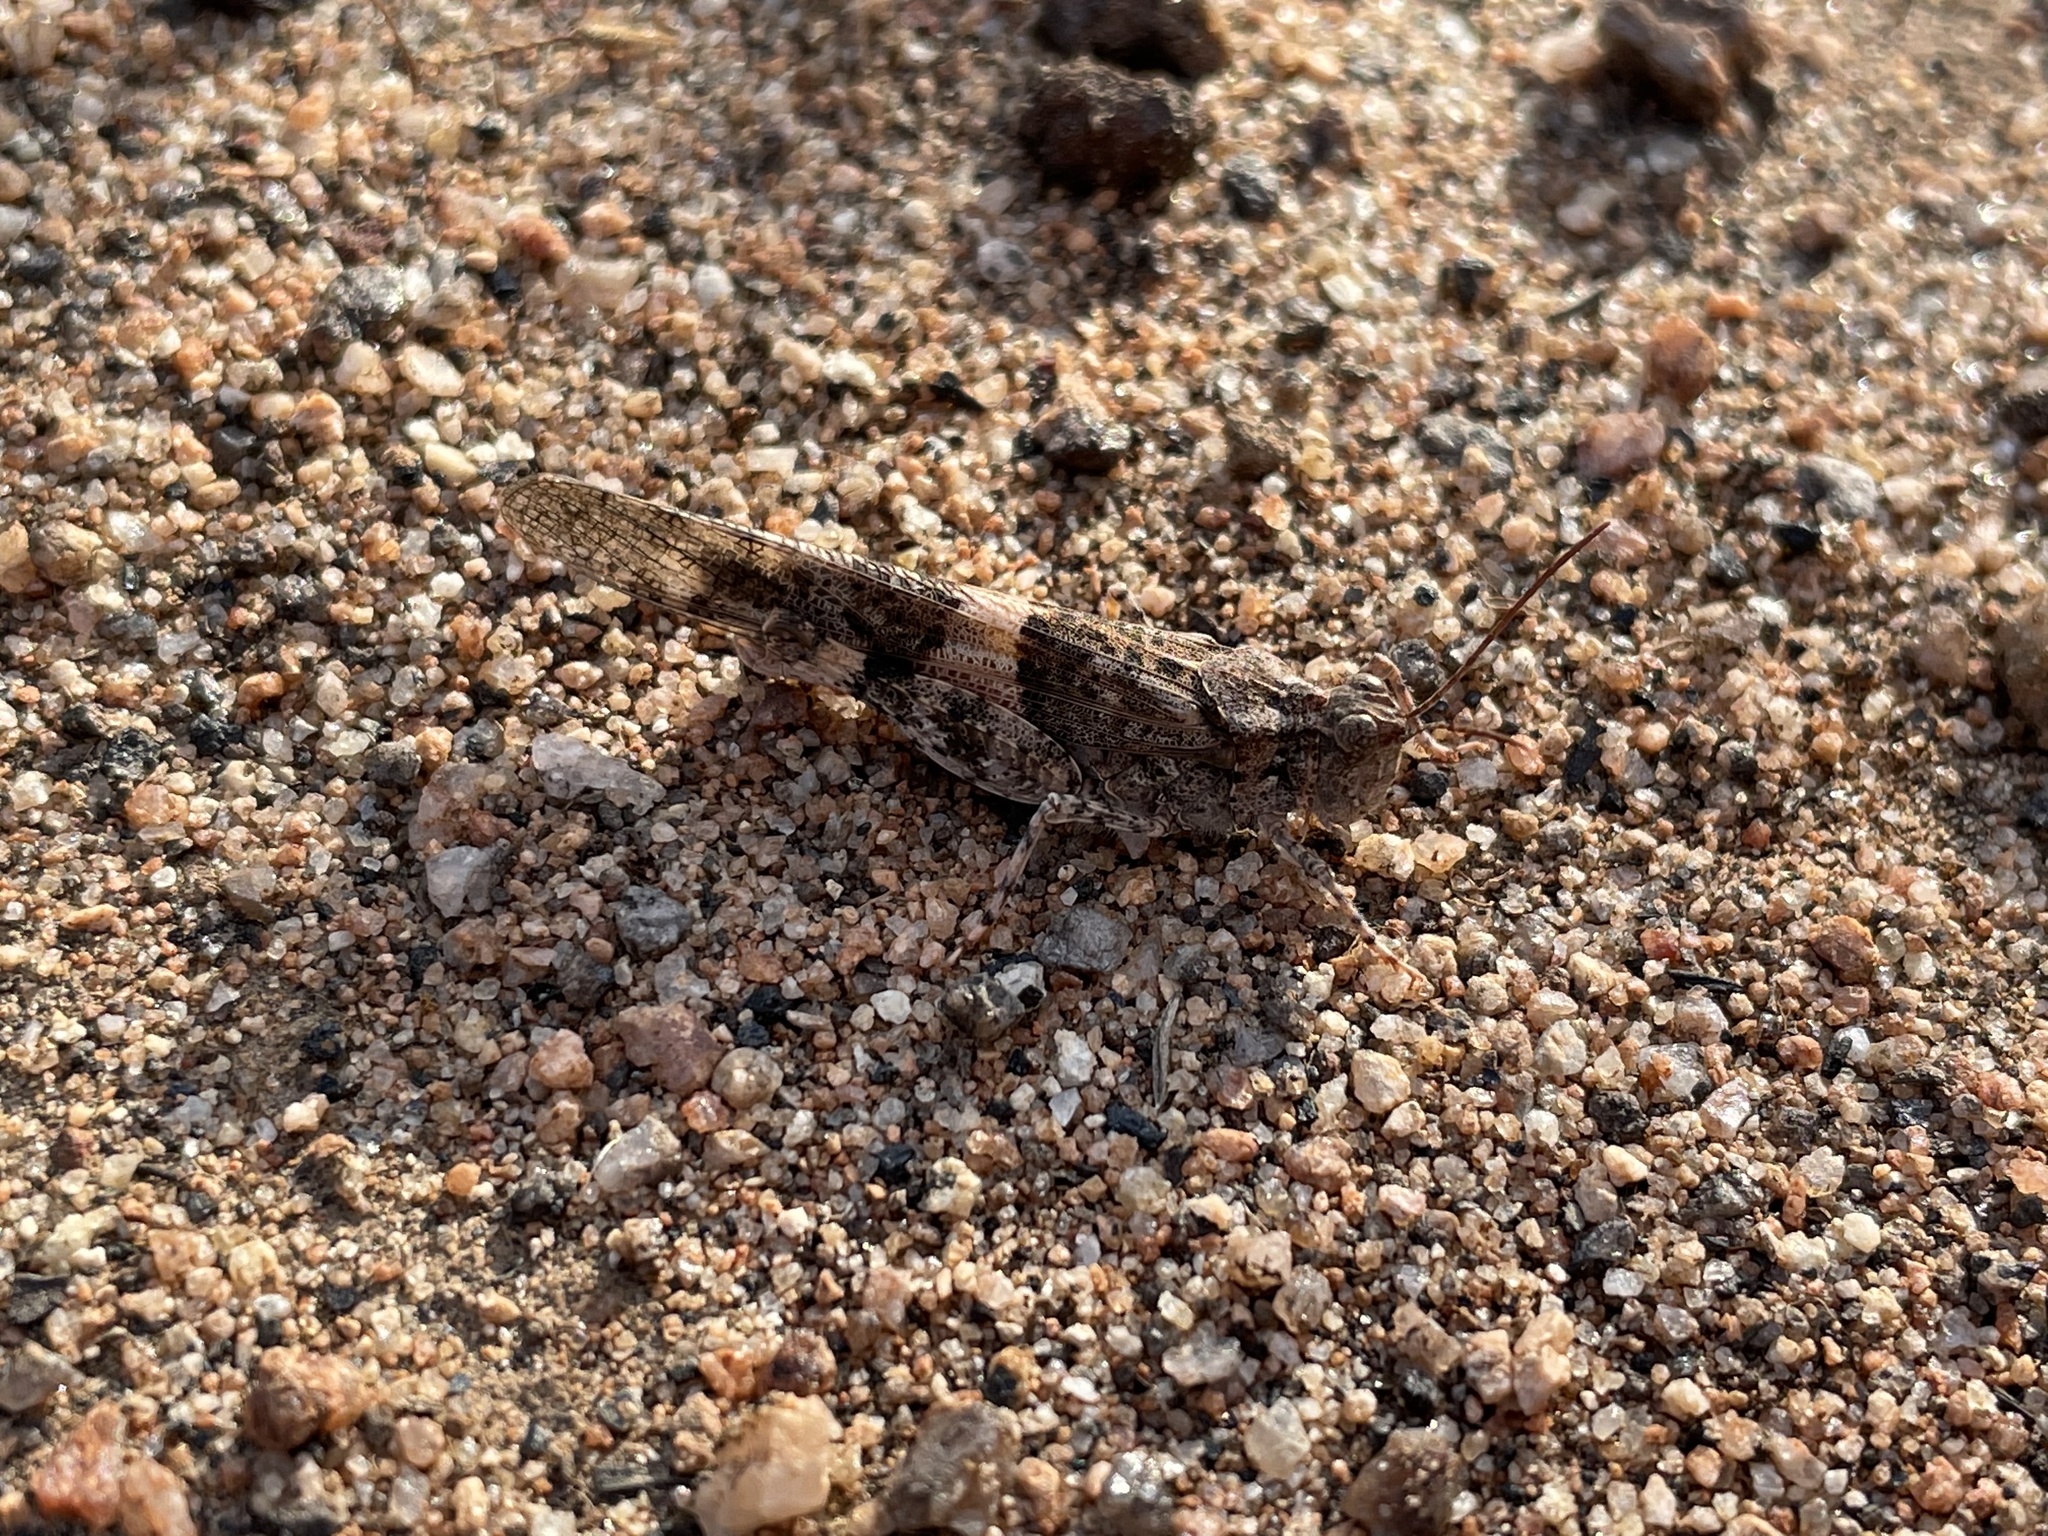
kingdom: Animalia
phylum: Arthropoda
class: Insecta
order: Orthoptera
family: Acrididae
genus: Trimerotropis
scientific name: Trimerotropis pallidipennis
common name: Pallid-winged grasshopper
